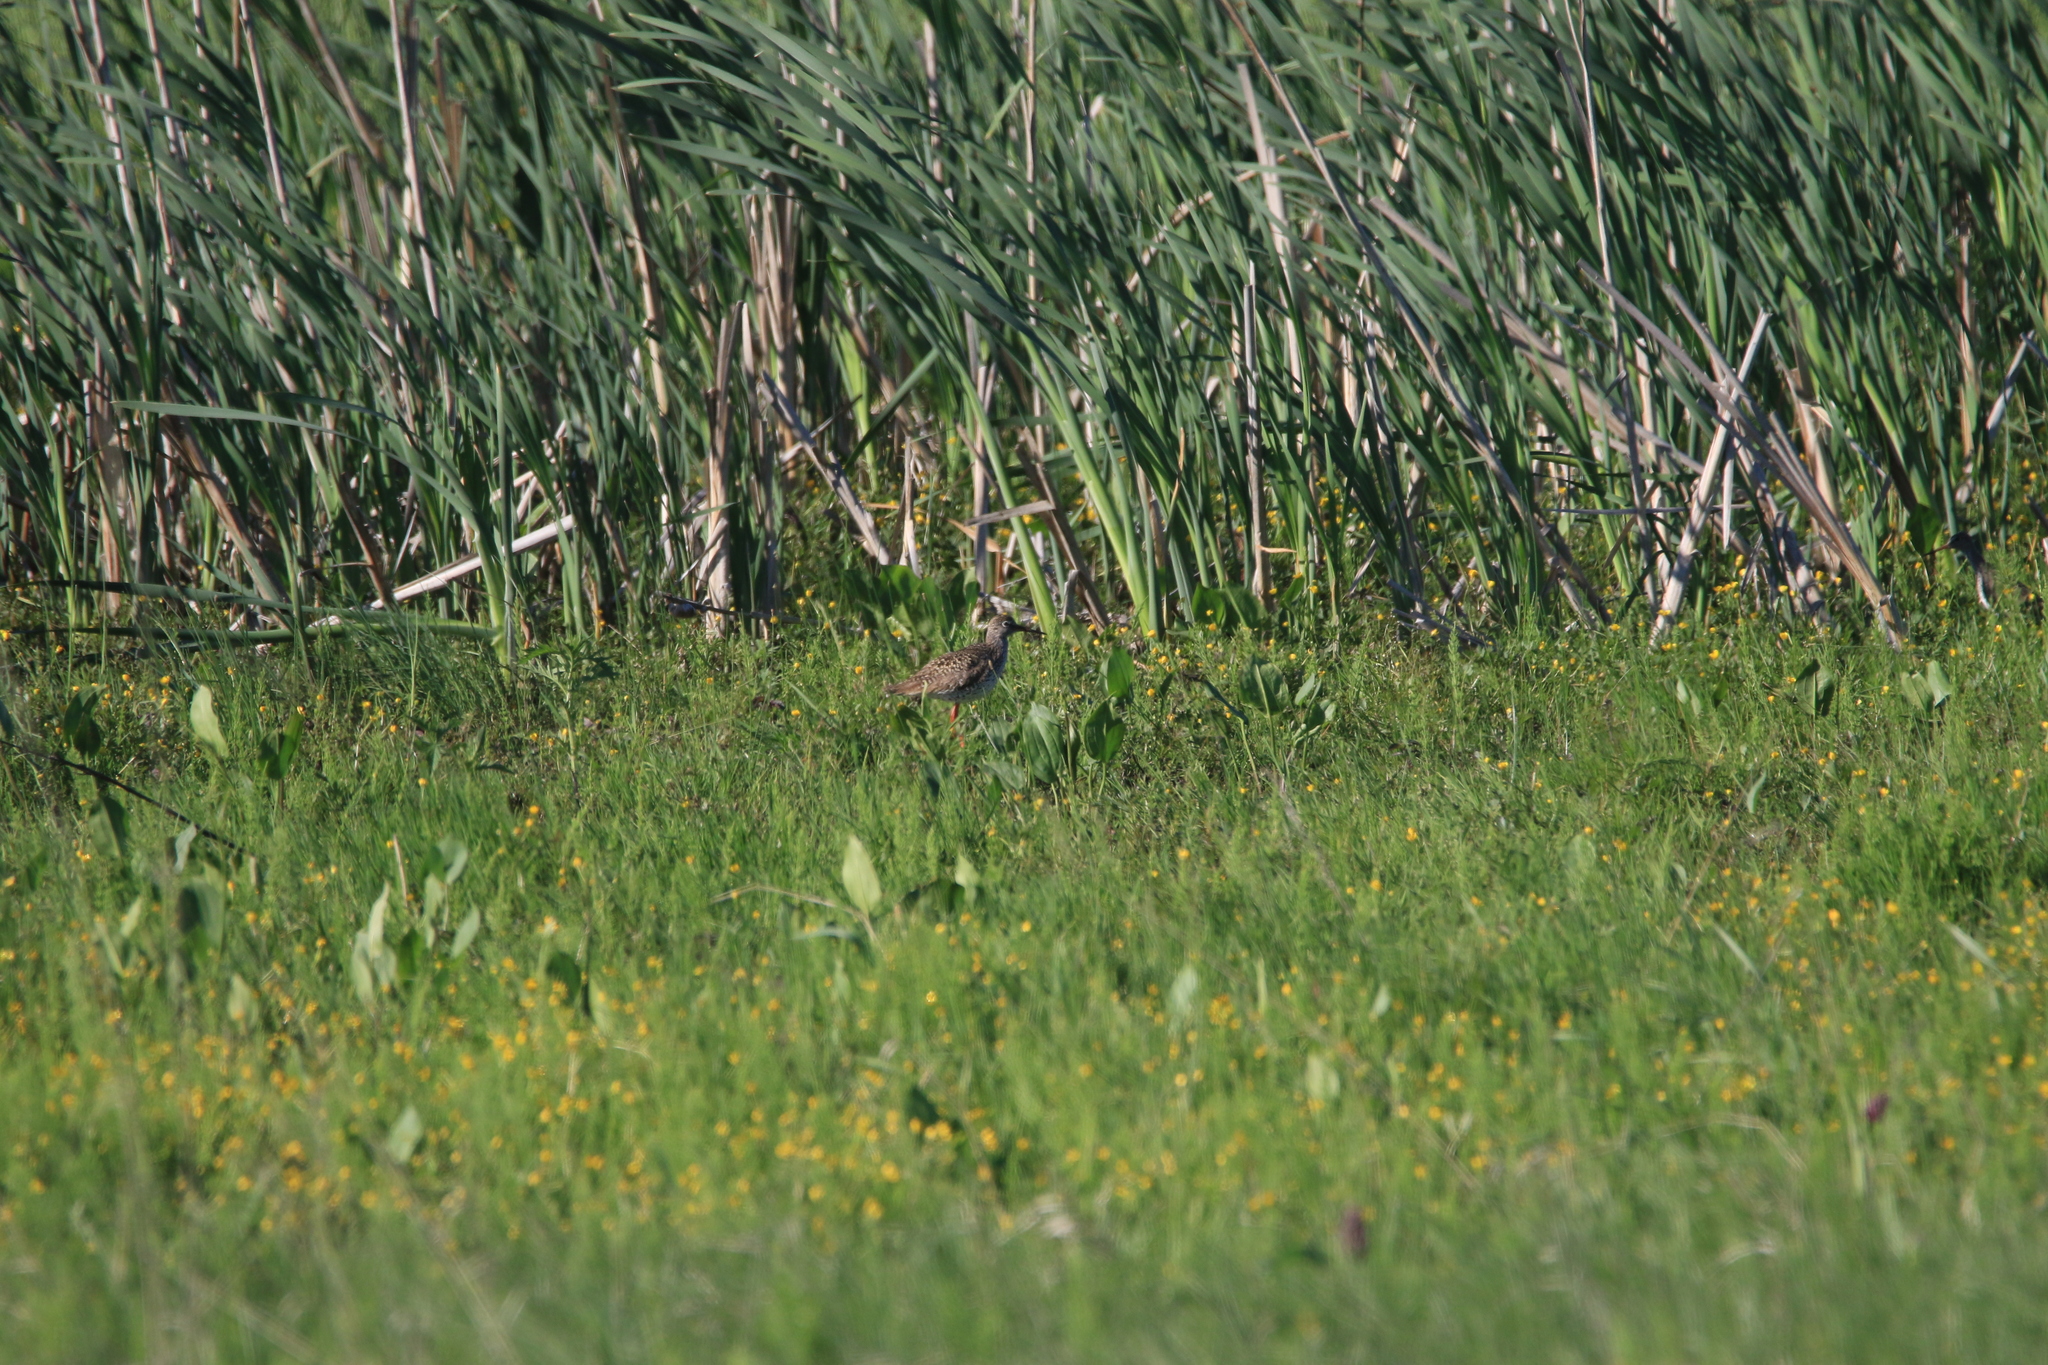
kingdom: Animalia
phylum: Chordata
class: Aves
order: Charadriiformes
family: Scolopacidae
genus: Tringa
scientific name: Tringa totanus
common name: Common redshank
